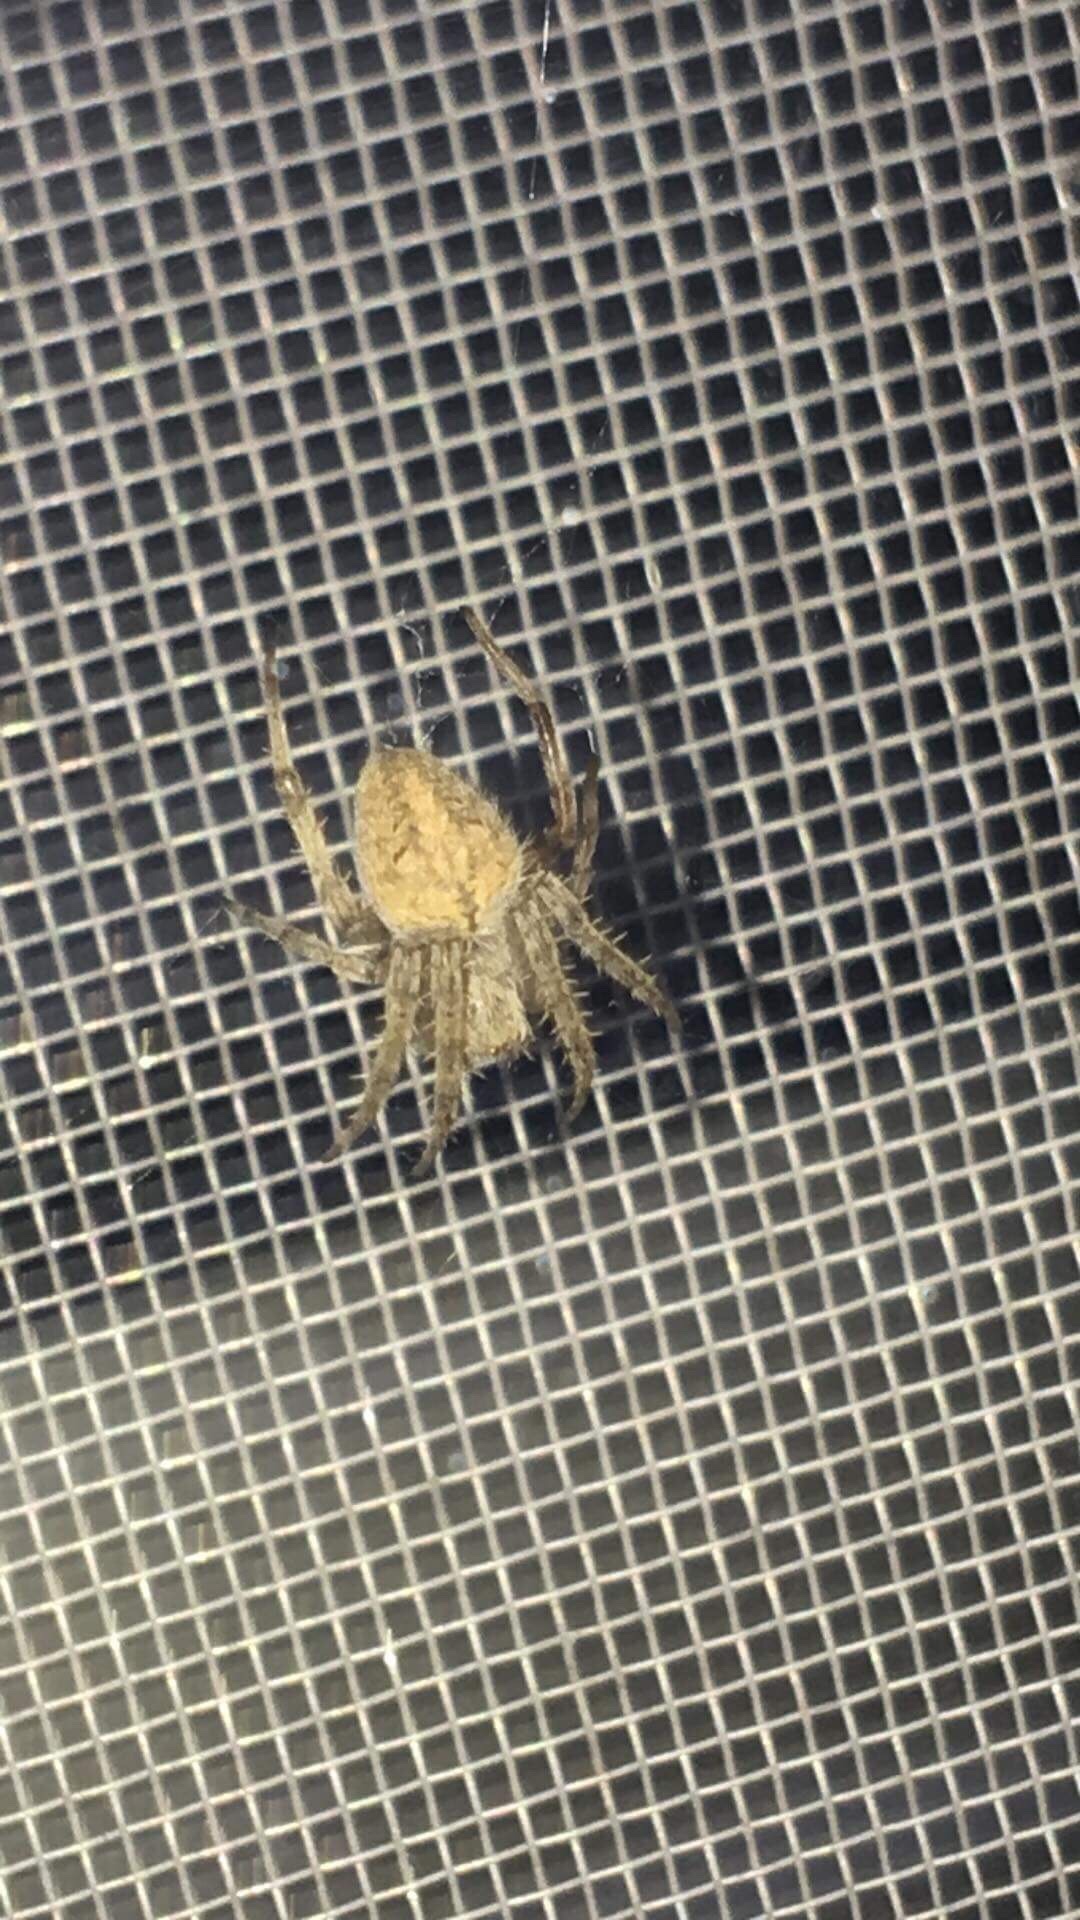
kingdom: Animalia
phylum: Arthropoda
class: Arachnida
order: Araneae
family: Araneidae
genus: Neoscona
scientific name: Neoscona crucifera
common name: Spotted orbweaver
